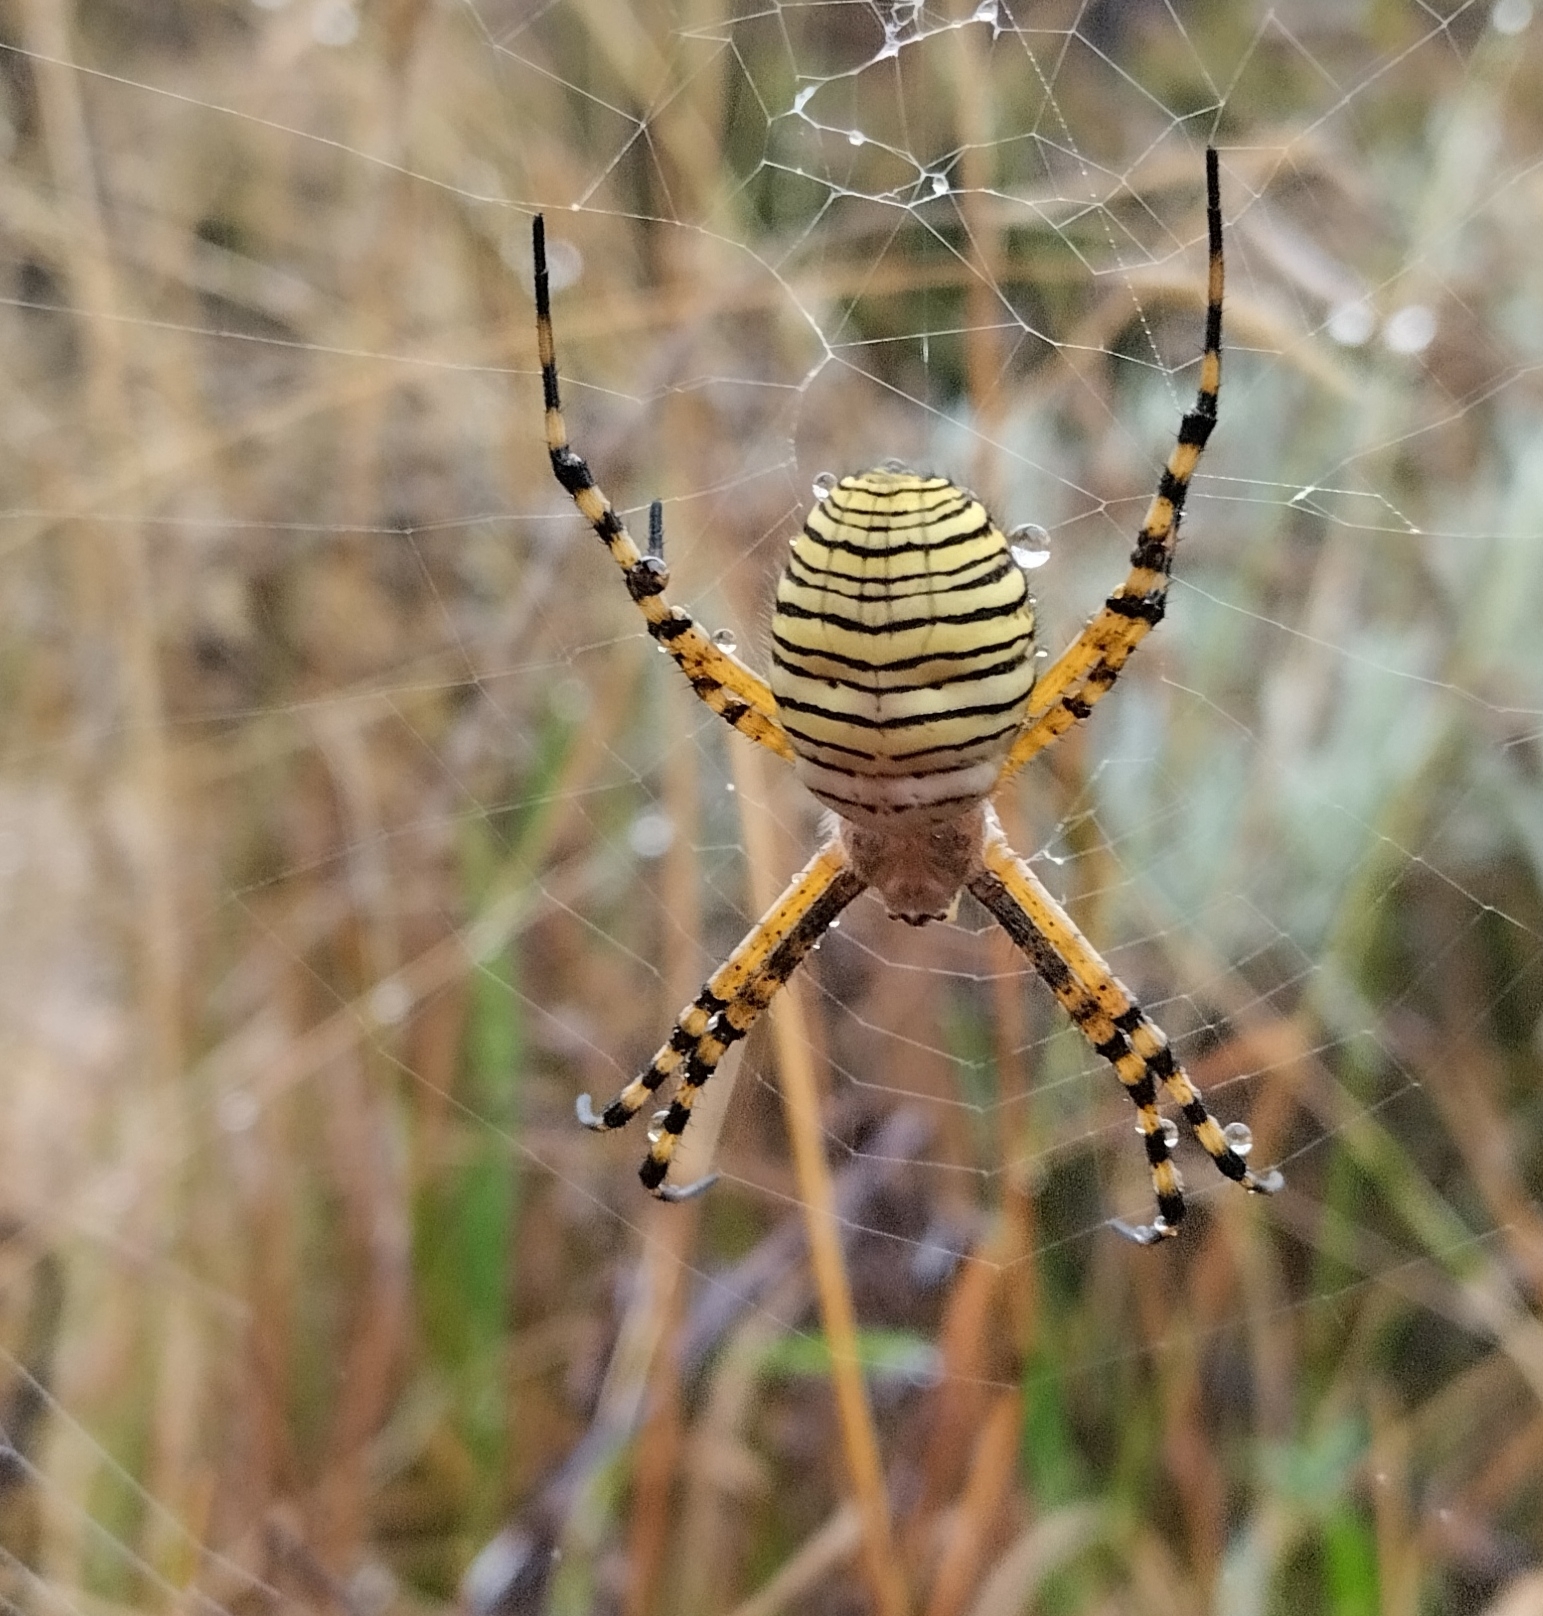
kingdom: Animalia
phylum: Arthropoda
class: Arachnida
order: Araneae
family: Araneidae
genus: Argiope
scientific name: Argiope trifasciata
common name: Banded garden spider
